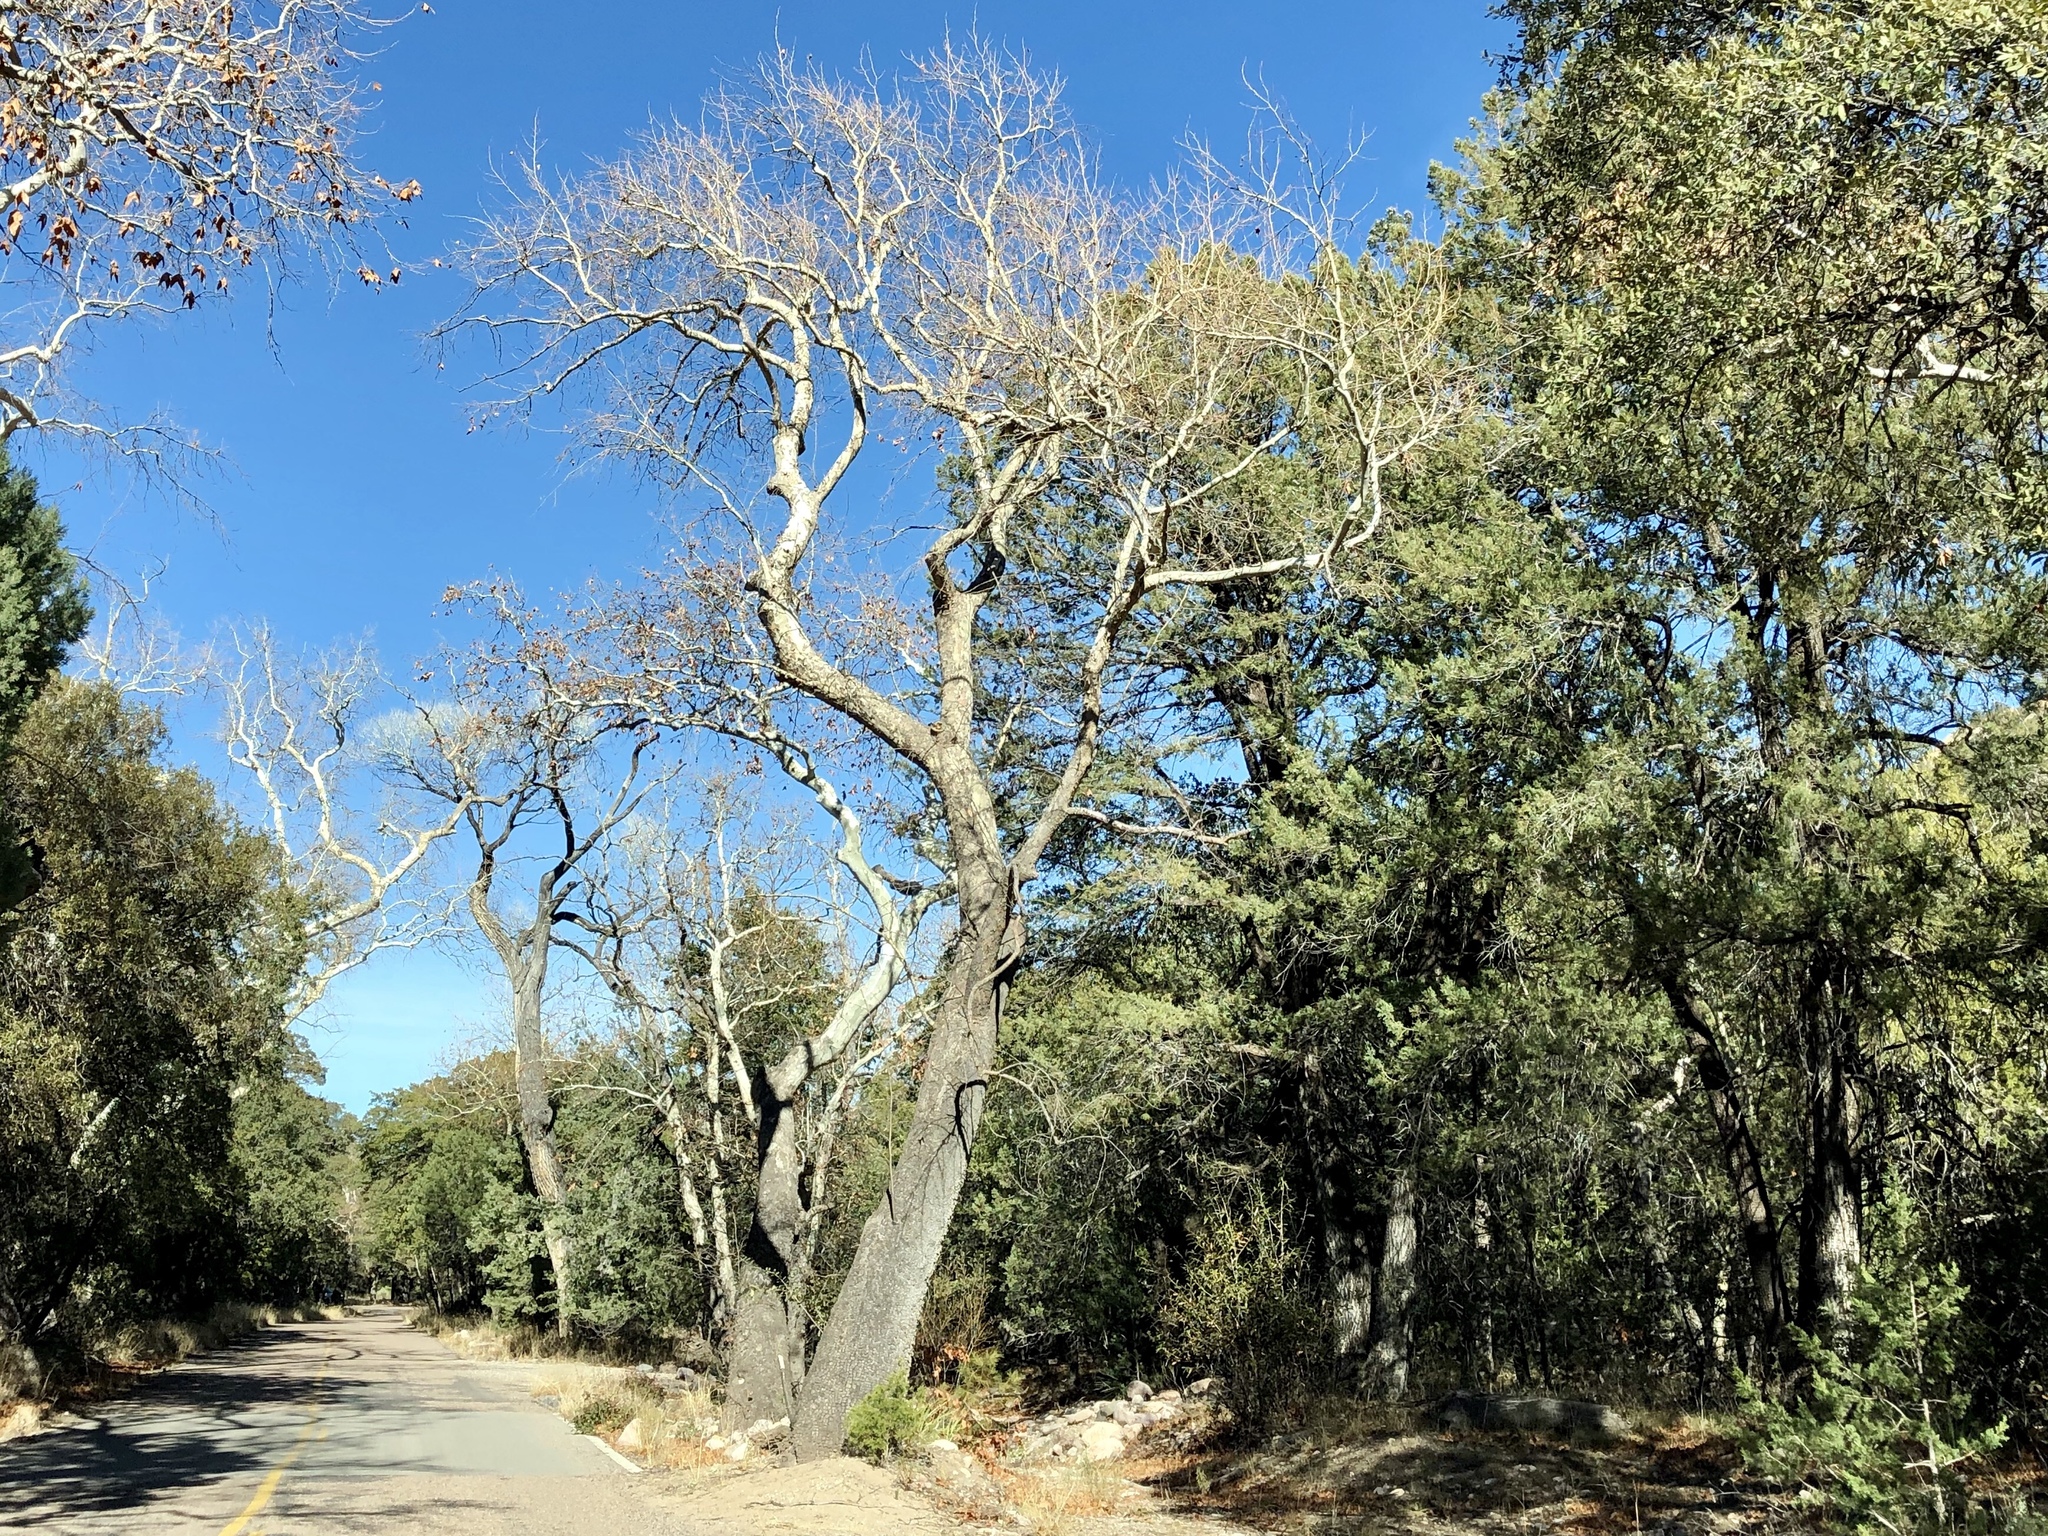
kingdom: Plantae
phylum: Tracheophyta
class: Magnoliopsida
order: Proteales
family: Platanaceae
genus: Platanus
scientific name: Platanus wrightii
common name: Arizona sycamore
